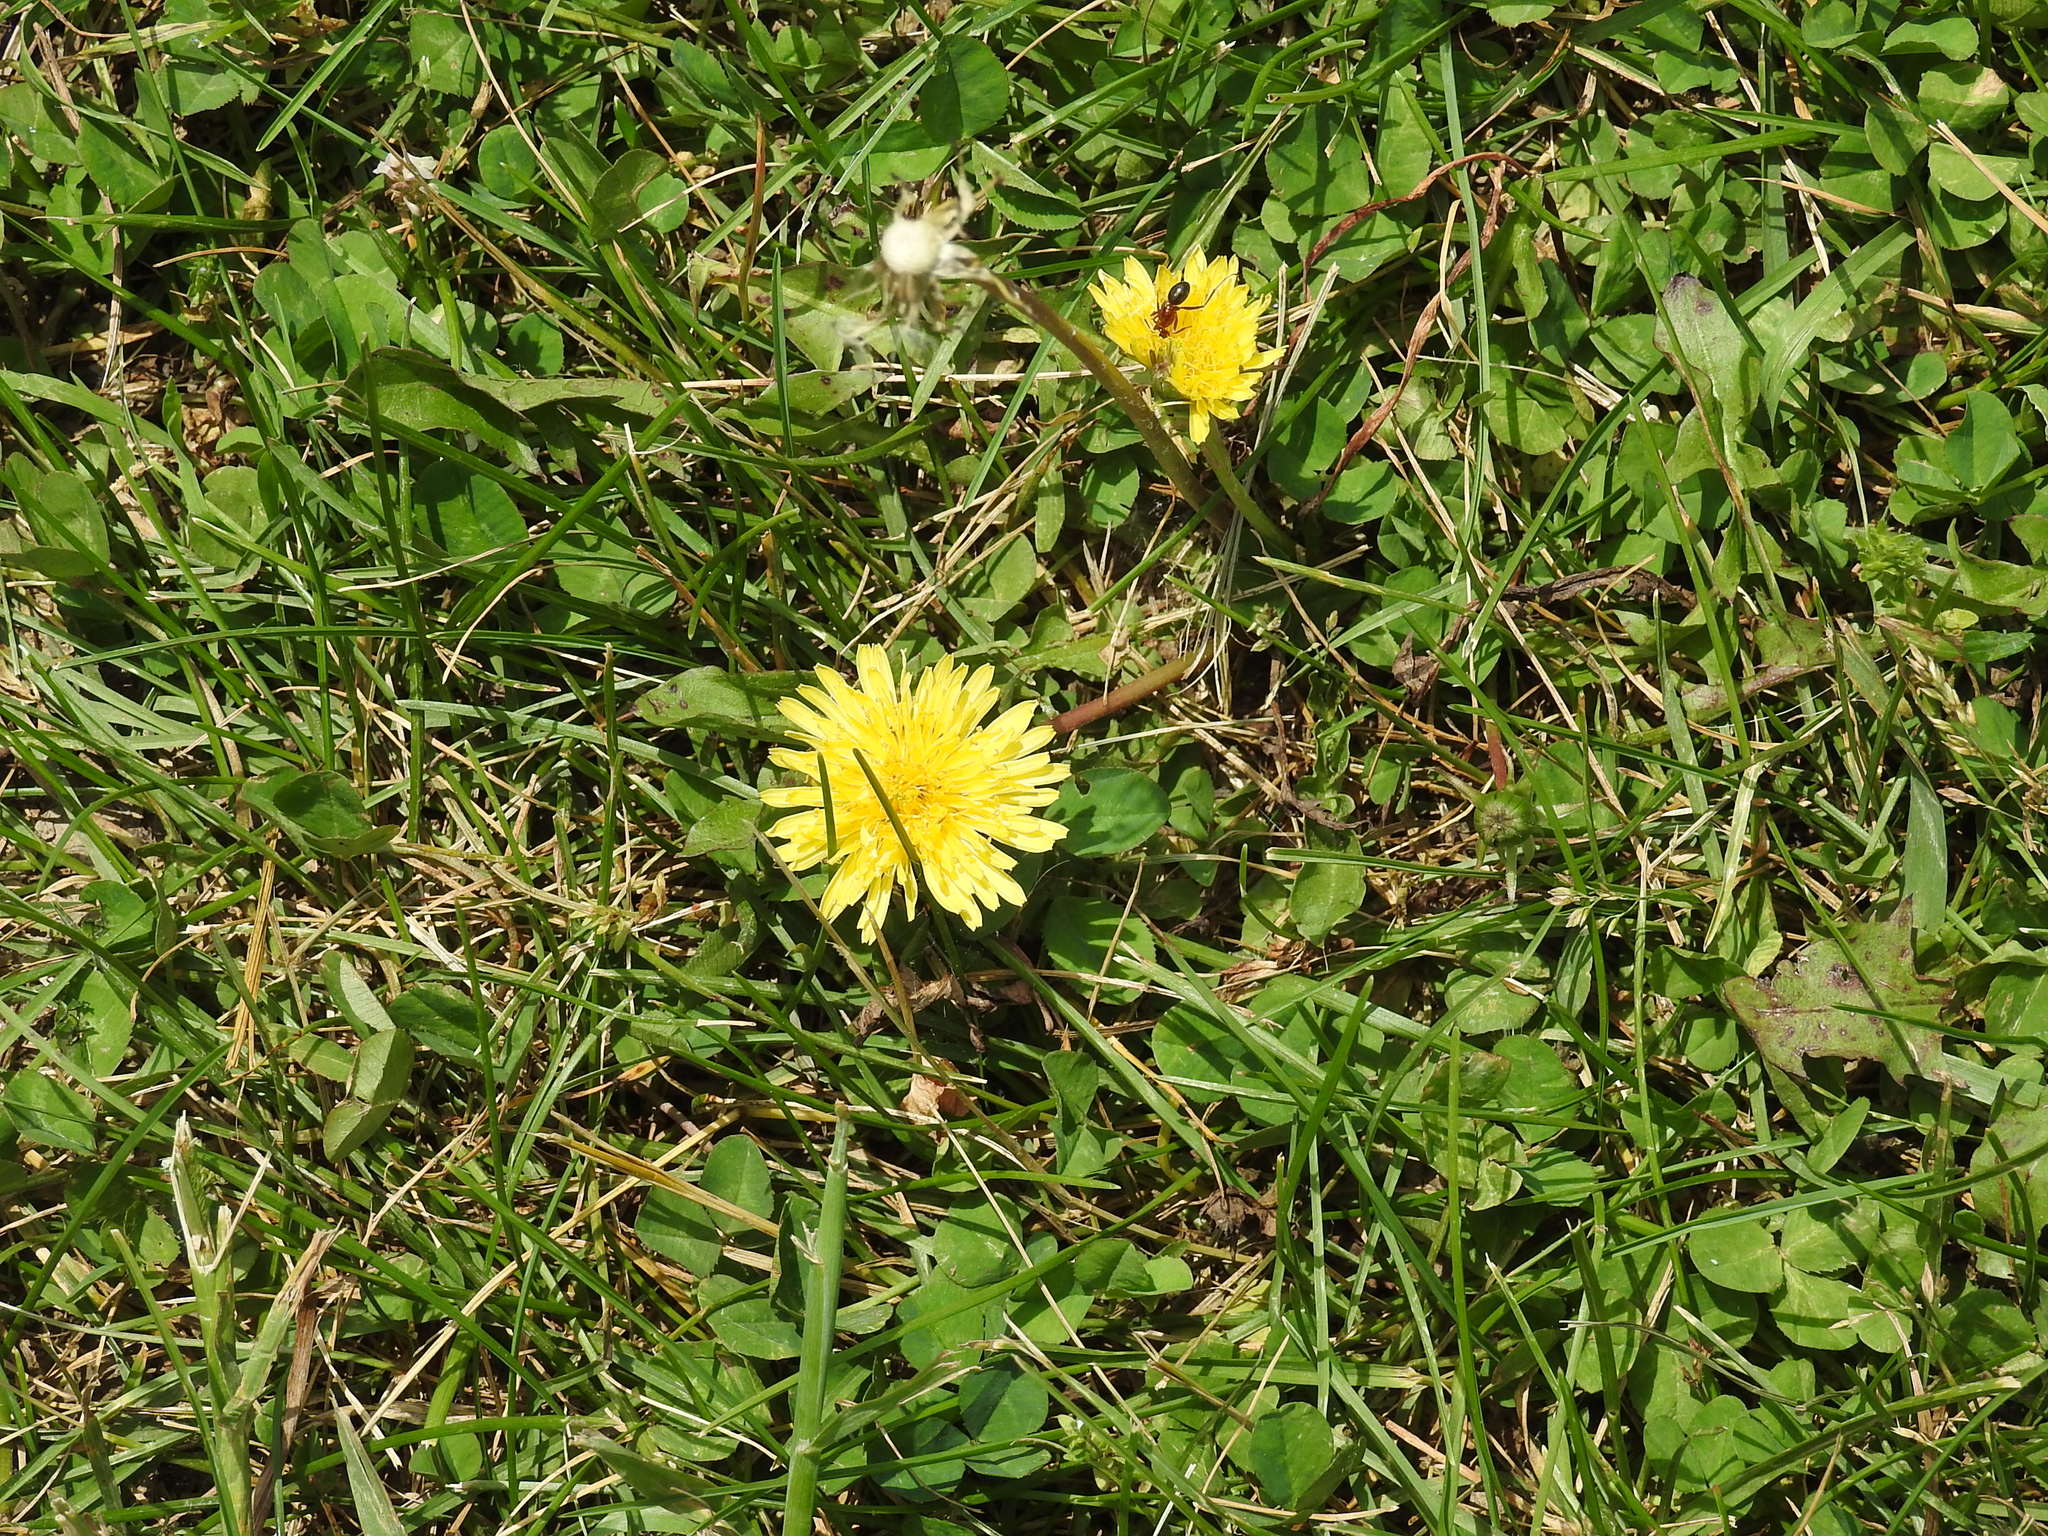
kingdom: Plantae
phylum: Tracheophyta
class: Magnoliopsida
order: Asterales
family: Asteraceae
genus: Taraxacum
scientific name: Taraxacum officinale
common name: Common dandelion
